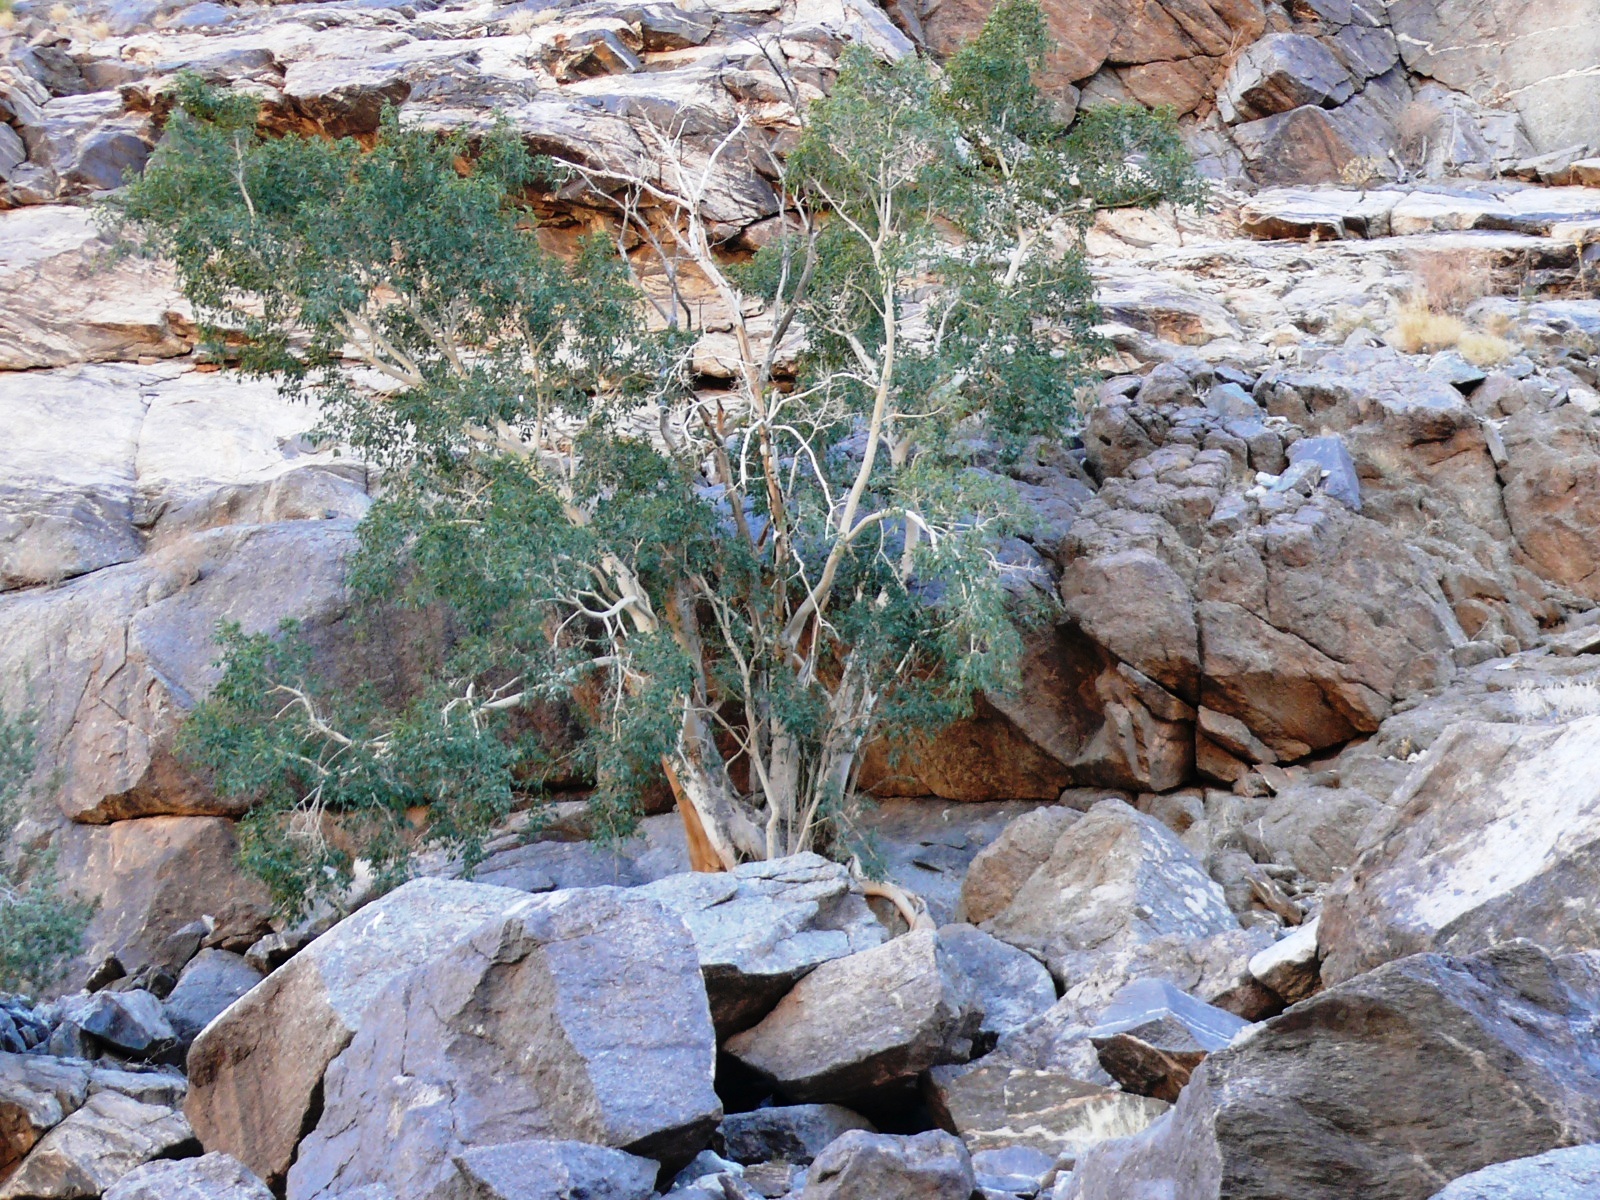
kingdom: Plantae
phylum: Tracheophyta
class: Magnoliopsida
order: Rosales
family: Moraceae
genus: Ficus
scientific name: Ficus cordata
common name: Namaqua rock fig
